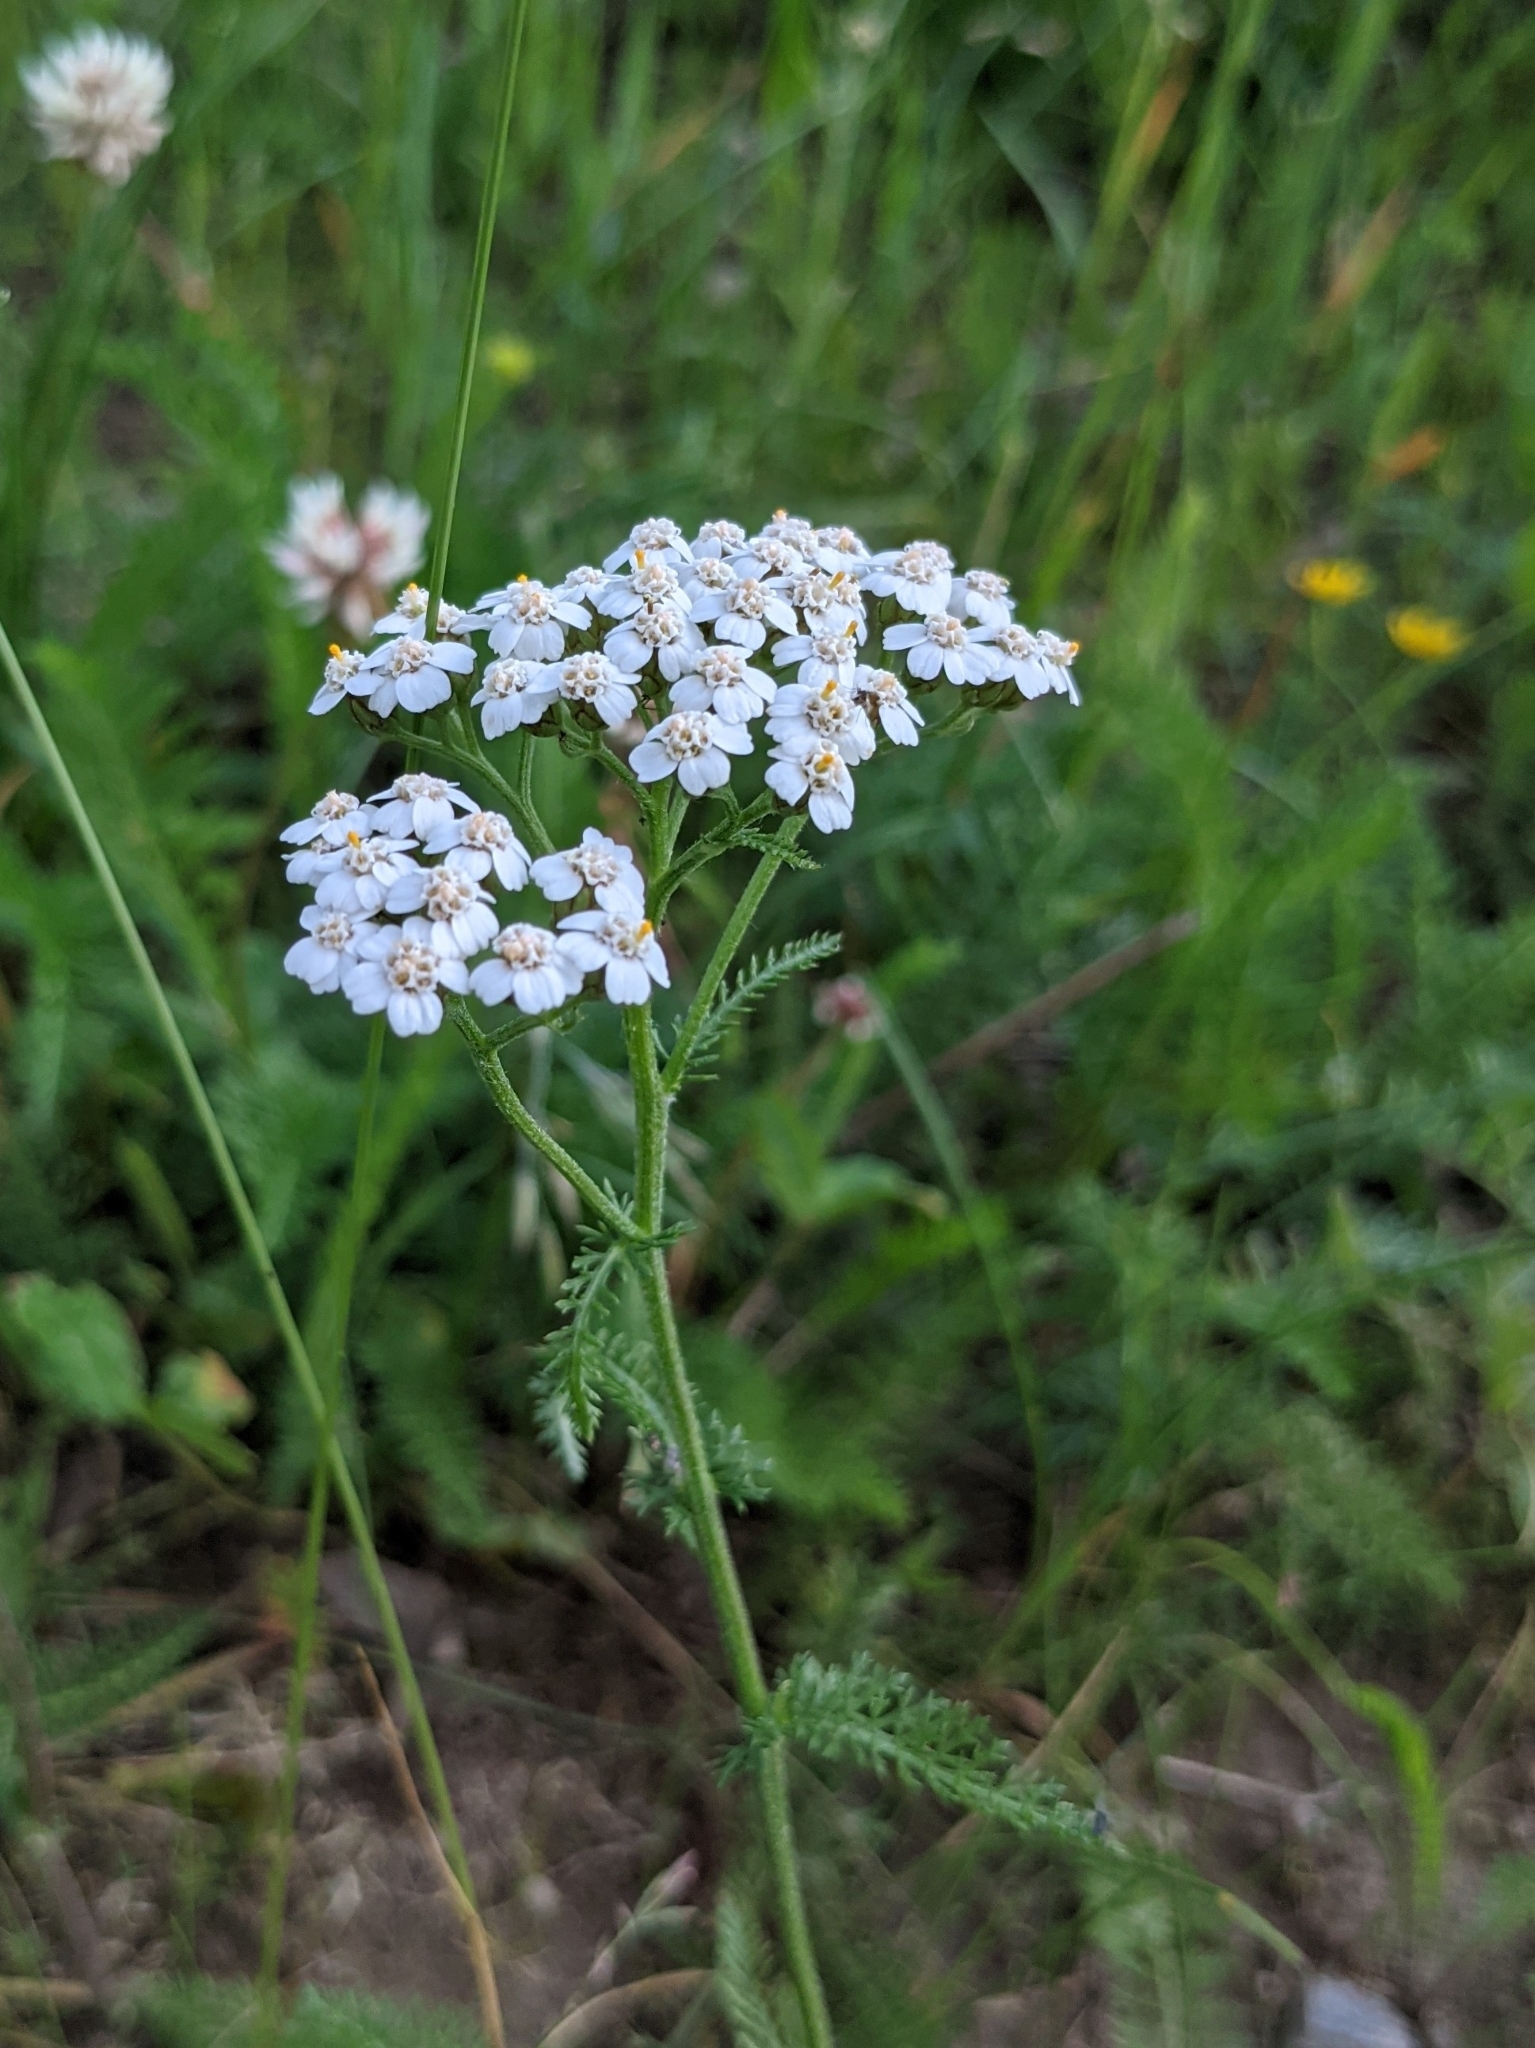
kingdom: Plantae
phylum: Tracheophyta
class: Magnoliopsida
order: Asterales
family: Asteraceae
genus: Achillea
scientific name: Achillea millefolium
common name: Yarrow
